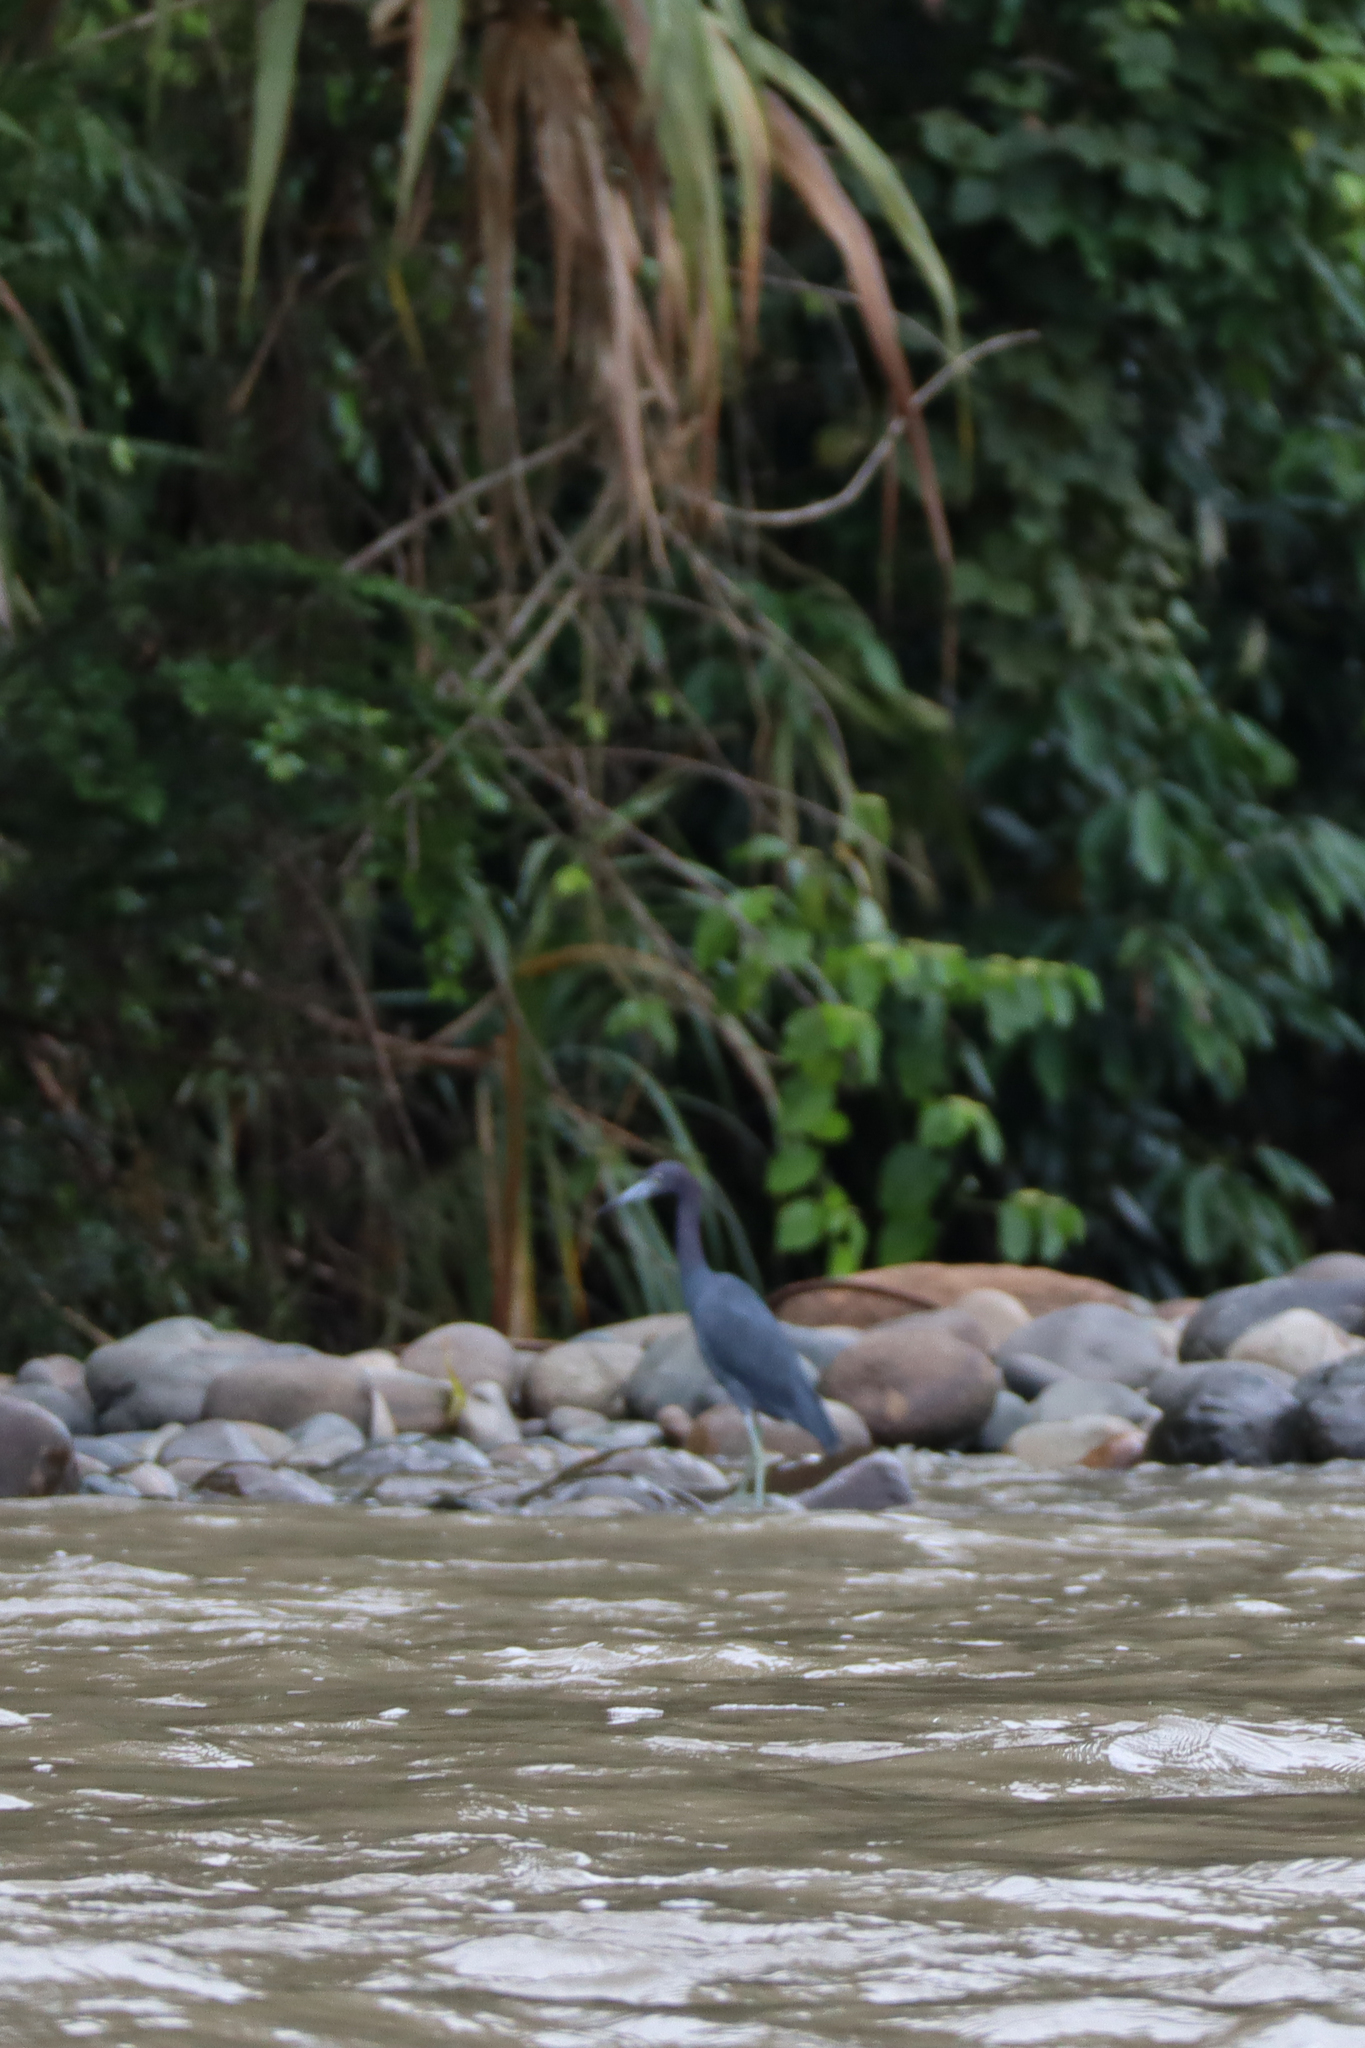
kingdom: Animalia
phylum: Chordata
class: Aves
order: Pelecaniformes
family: Ardeidae
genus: Egretta
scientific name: Egretta caerulea
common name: Little blue heron
